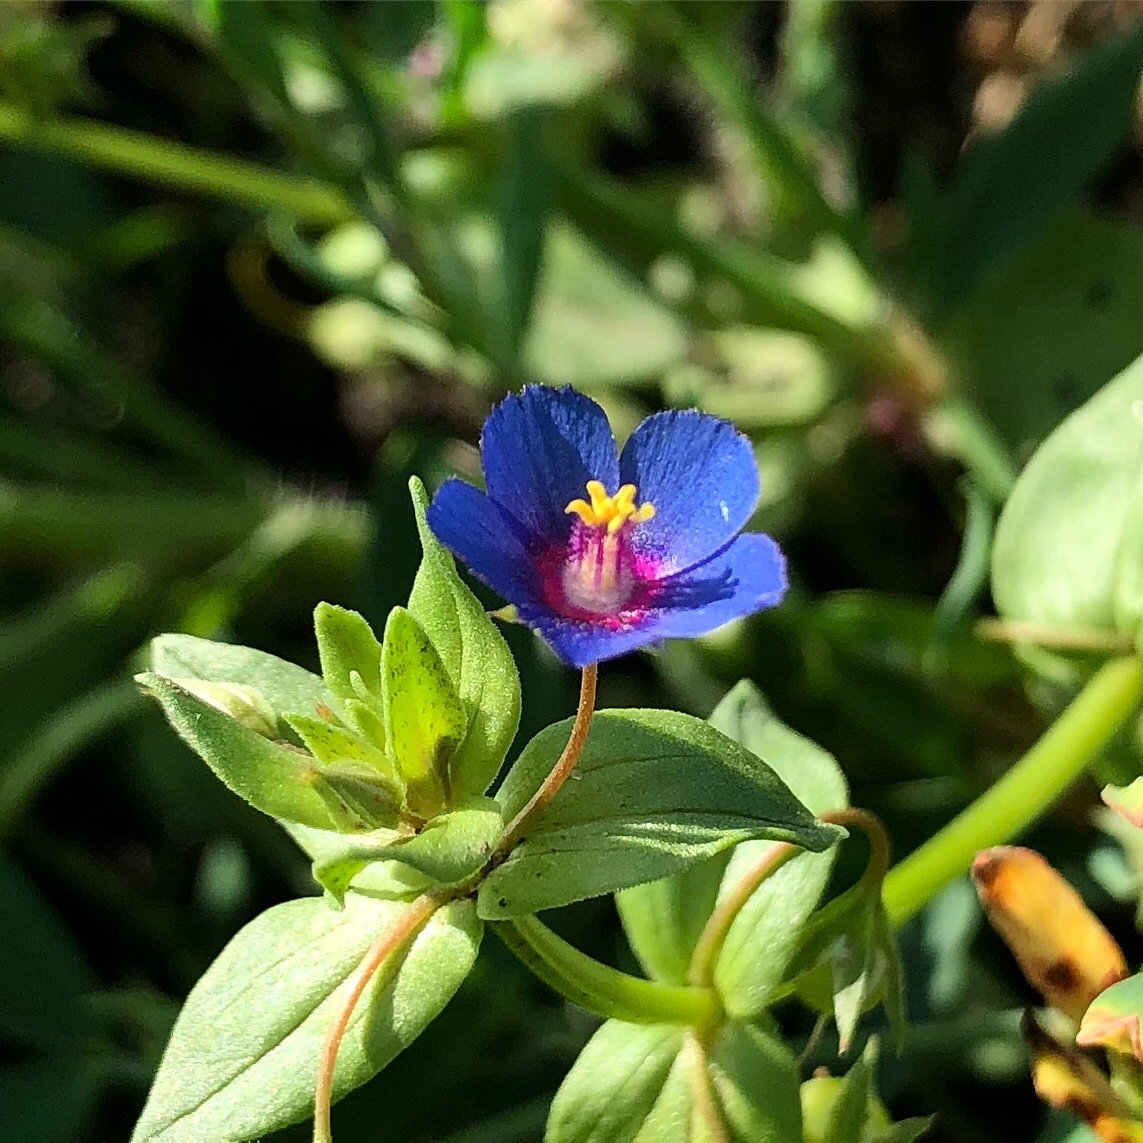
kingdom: Plantae
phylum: Tracheophyta
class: Magnoliopsida
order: Ericales
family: Primulaceae
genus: Lysimachia
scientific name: Lysimachia foemina
